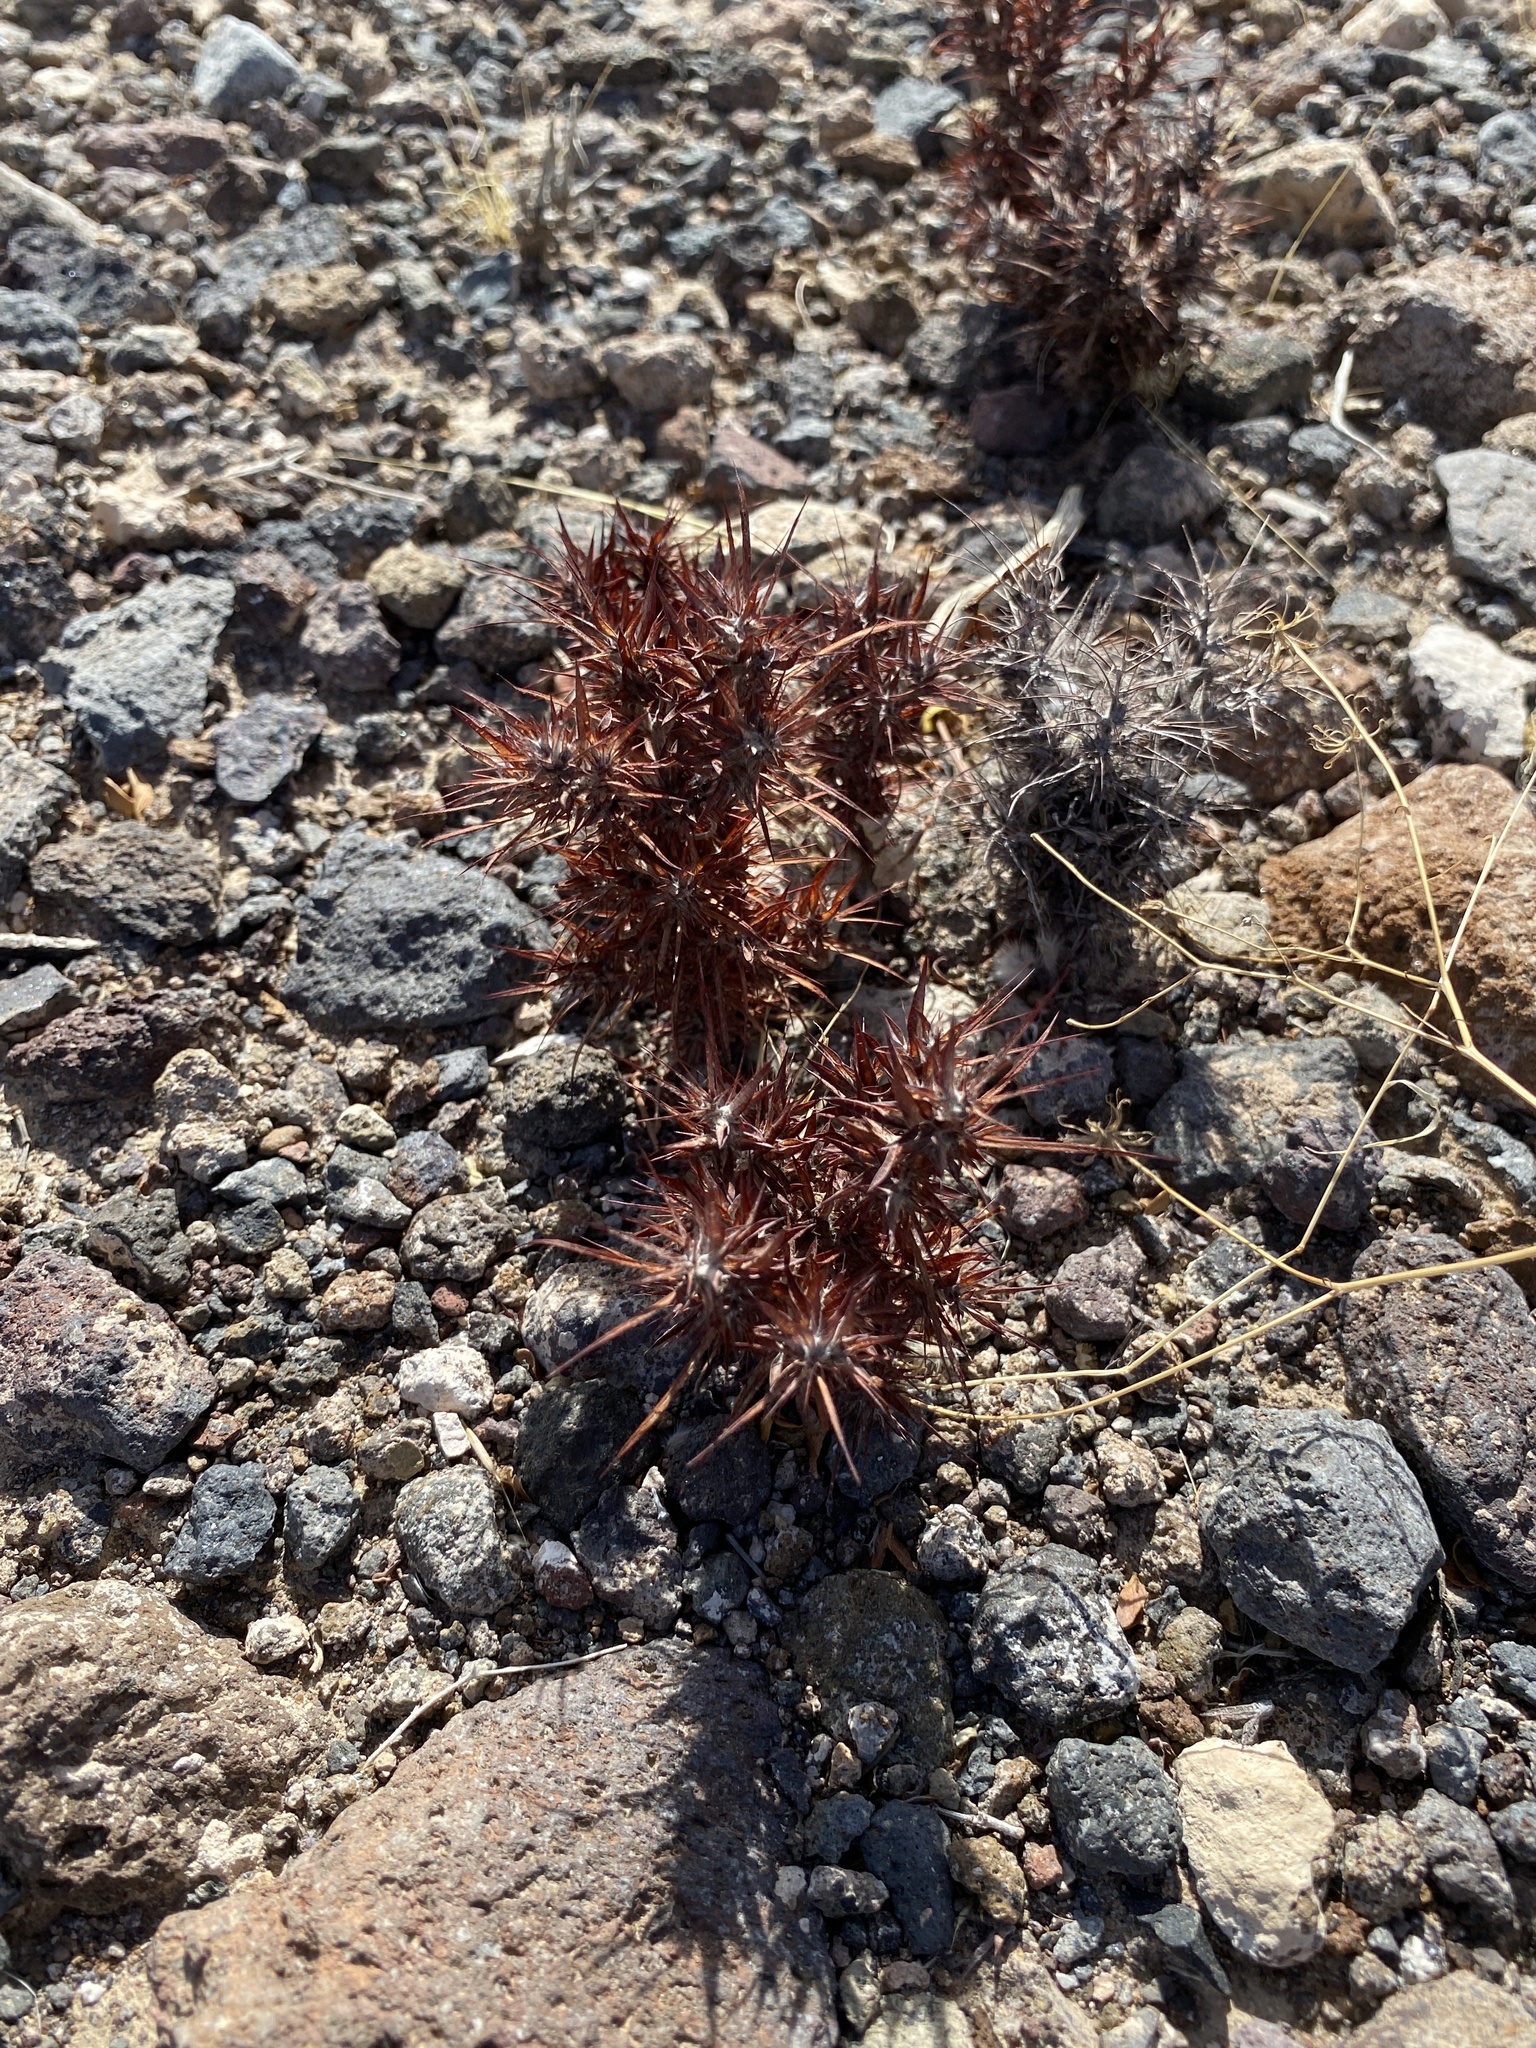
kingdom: Plantae
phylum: Tracheophyta
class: Magnoliopsida
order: Caryophyllales
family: Polygonaceae
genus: Chorizanthe
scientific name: Chorizanthe rigida
